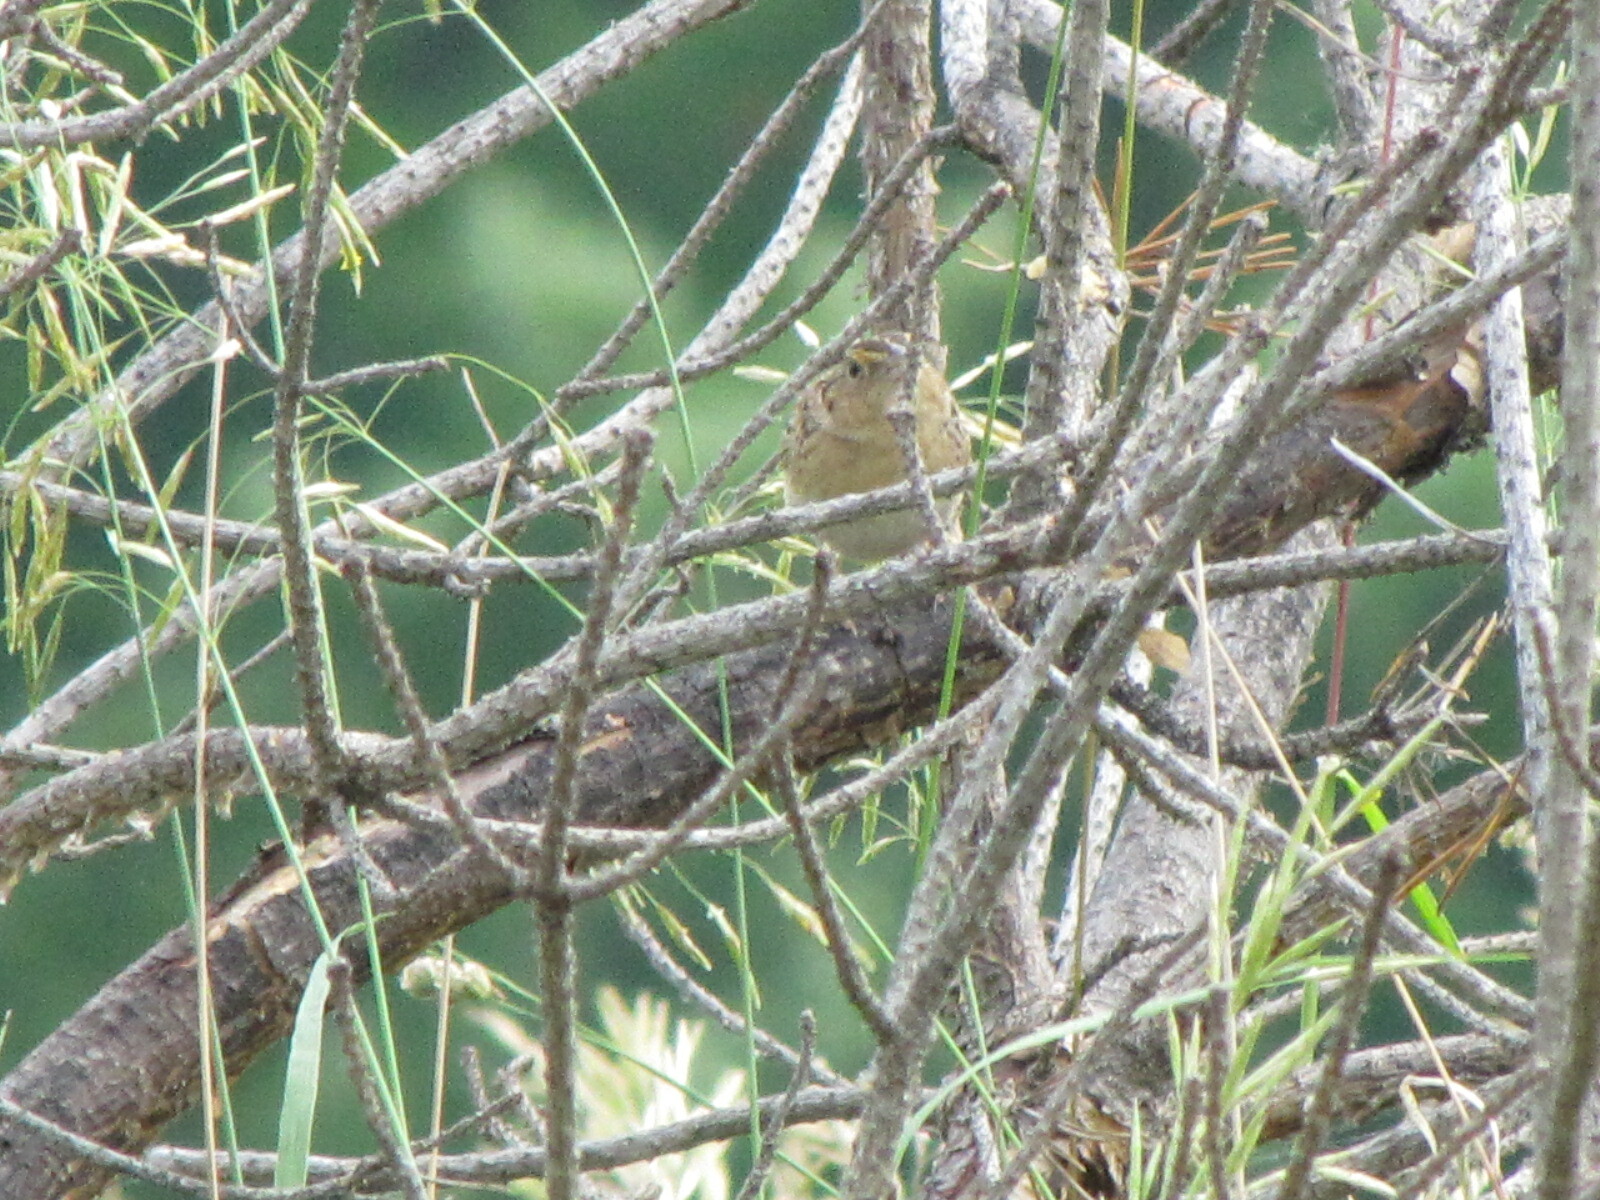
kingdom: Animalia
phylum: Chordata
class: Aves
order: Passeriformes
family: Passerellidae
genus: Ammodramus
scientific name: Ammodramus savannarum
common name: Grasshopper sparrow
